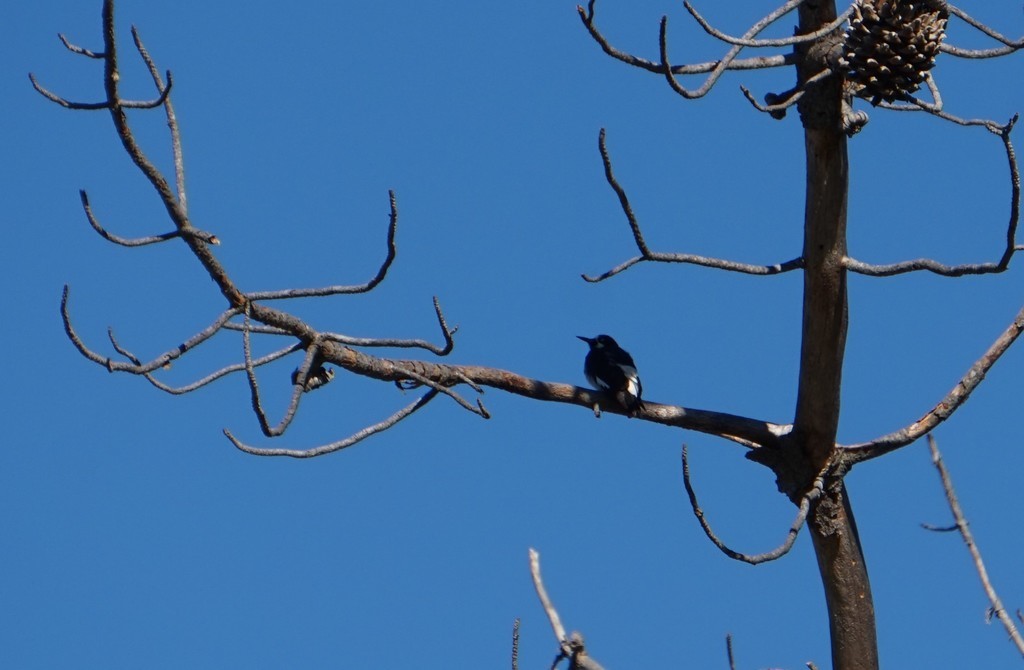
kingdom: Animalia
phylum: Chordata
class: Aves
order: Piciformes
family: Picidae
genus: Melanerpes
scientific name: Melanerpes formicivorus
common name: Acorn woodpecker
